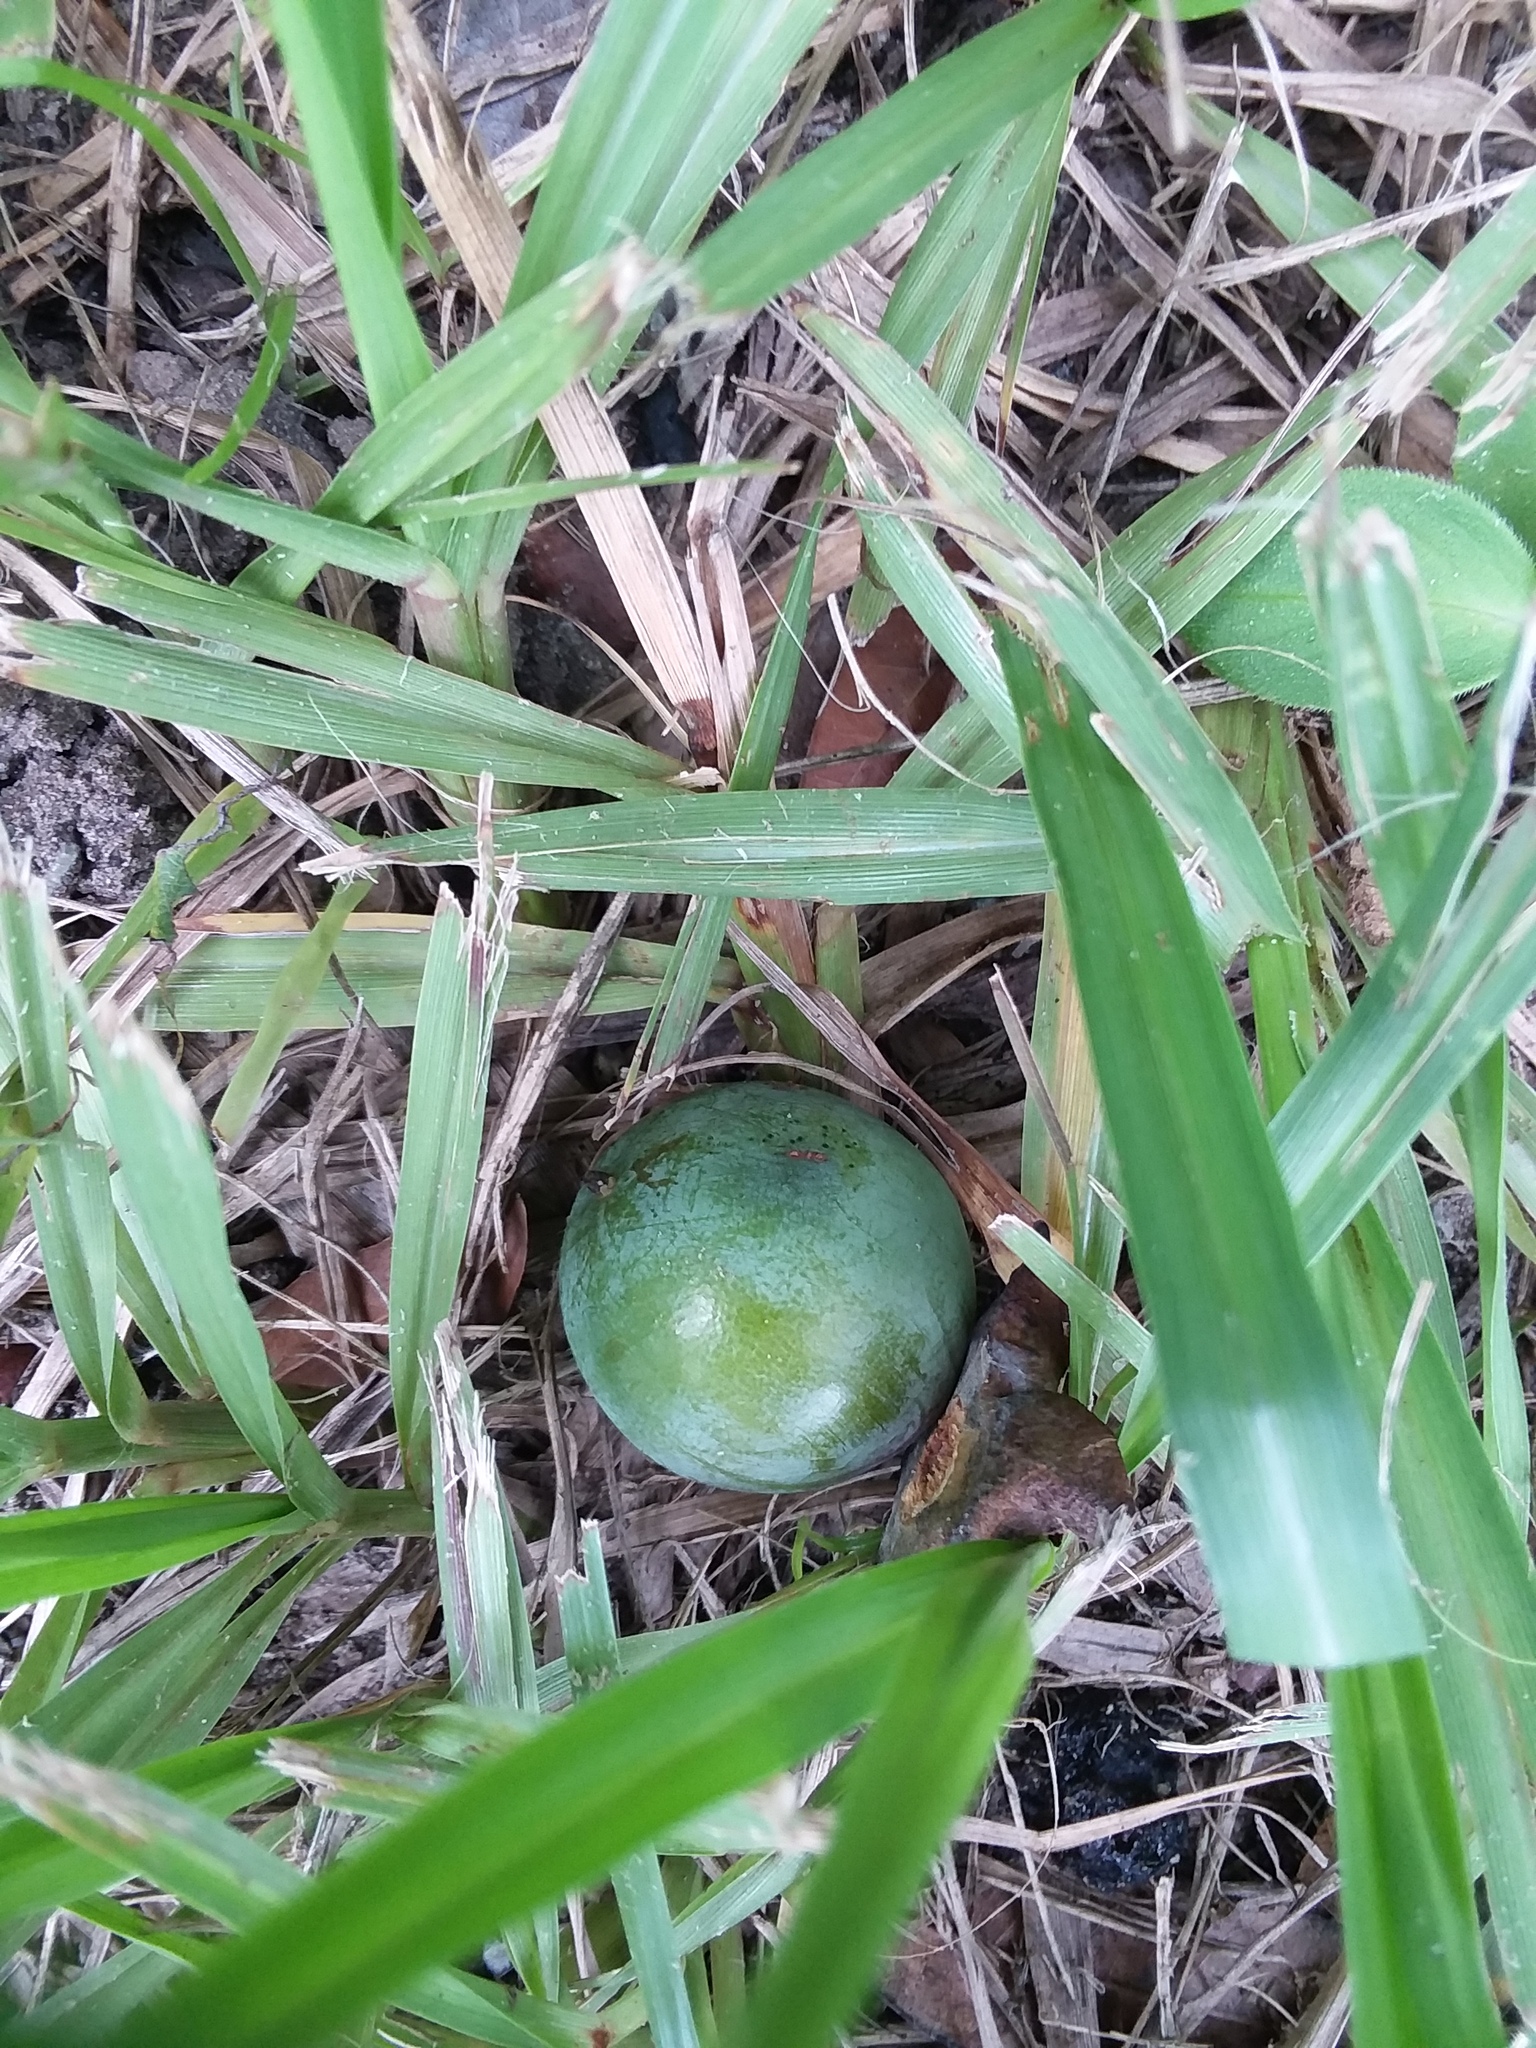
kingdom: Plantae
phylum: Tracheophyta
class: Magnoliopsida
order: Ericales
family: Ebenaceae
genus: Diospyros
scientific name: Diospyros virginiana
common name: Persimmon
